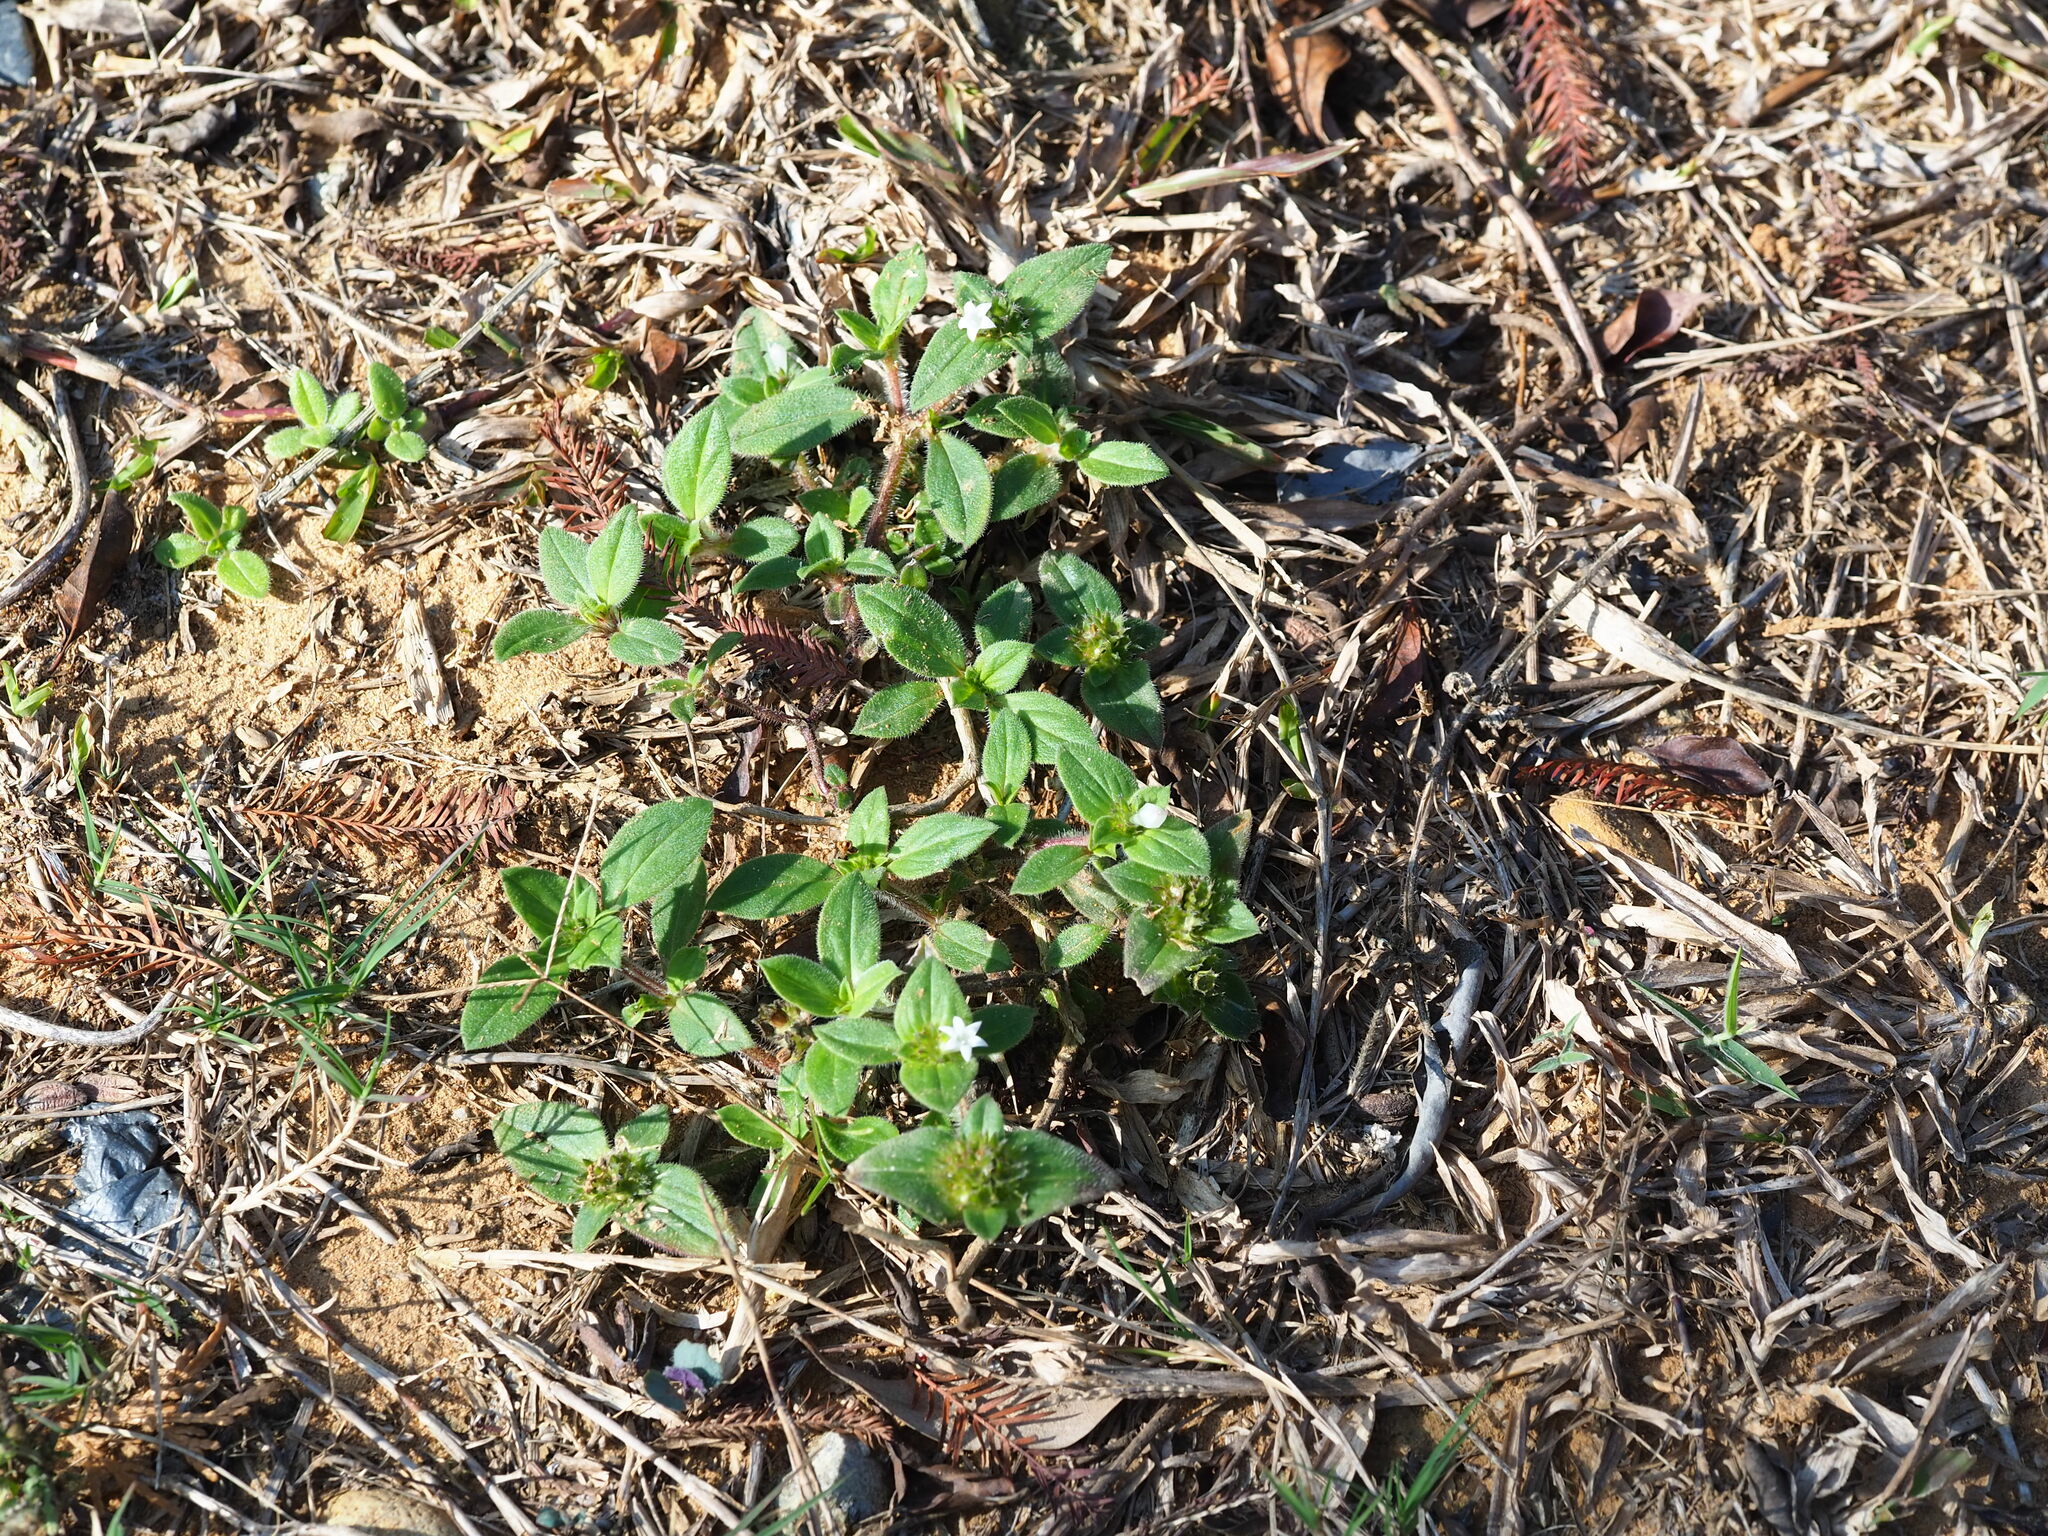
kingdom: Plantae
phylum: Tracheophyta
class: Magnoliopsida
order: Gentianales
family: Rubiaceae
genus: Richardia
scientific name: Richardia brasiliensis
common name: Tropical mexican clover
